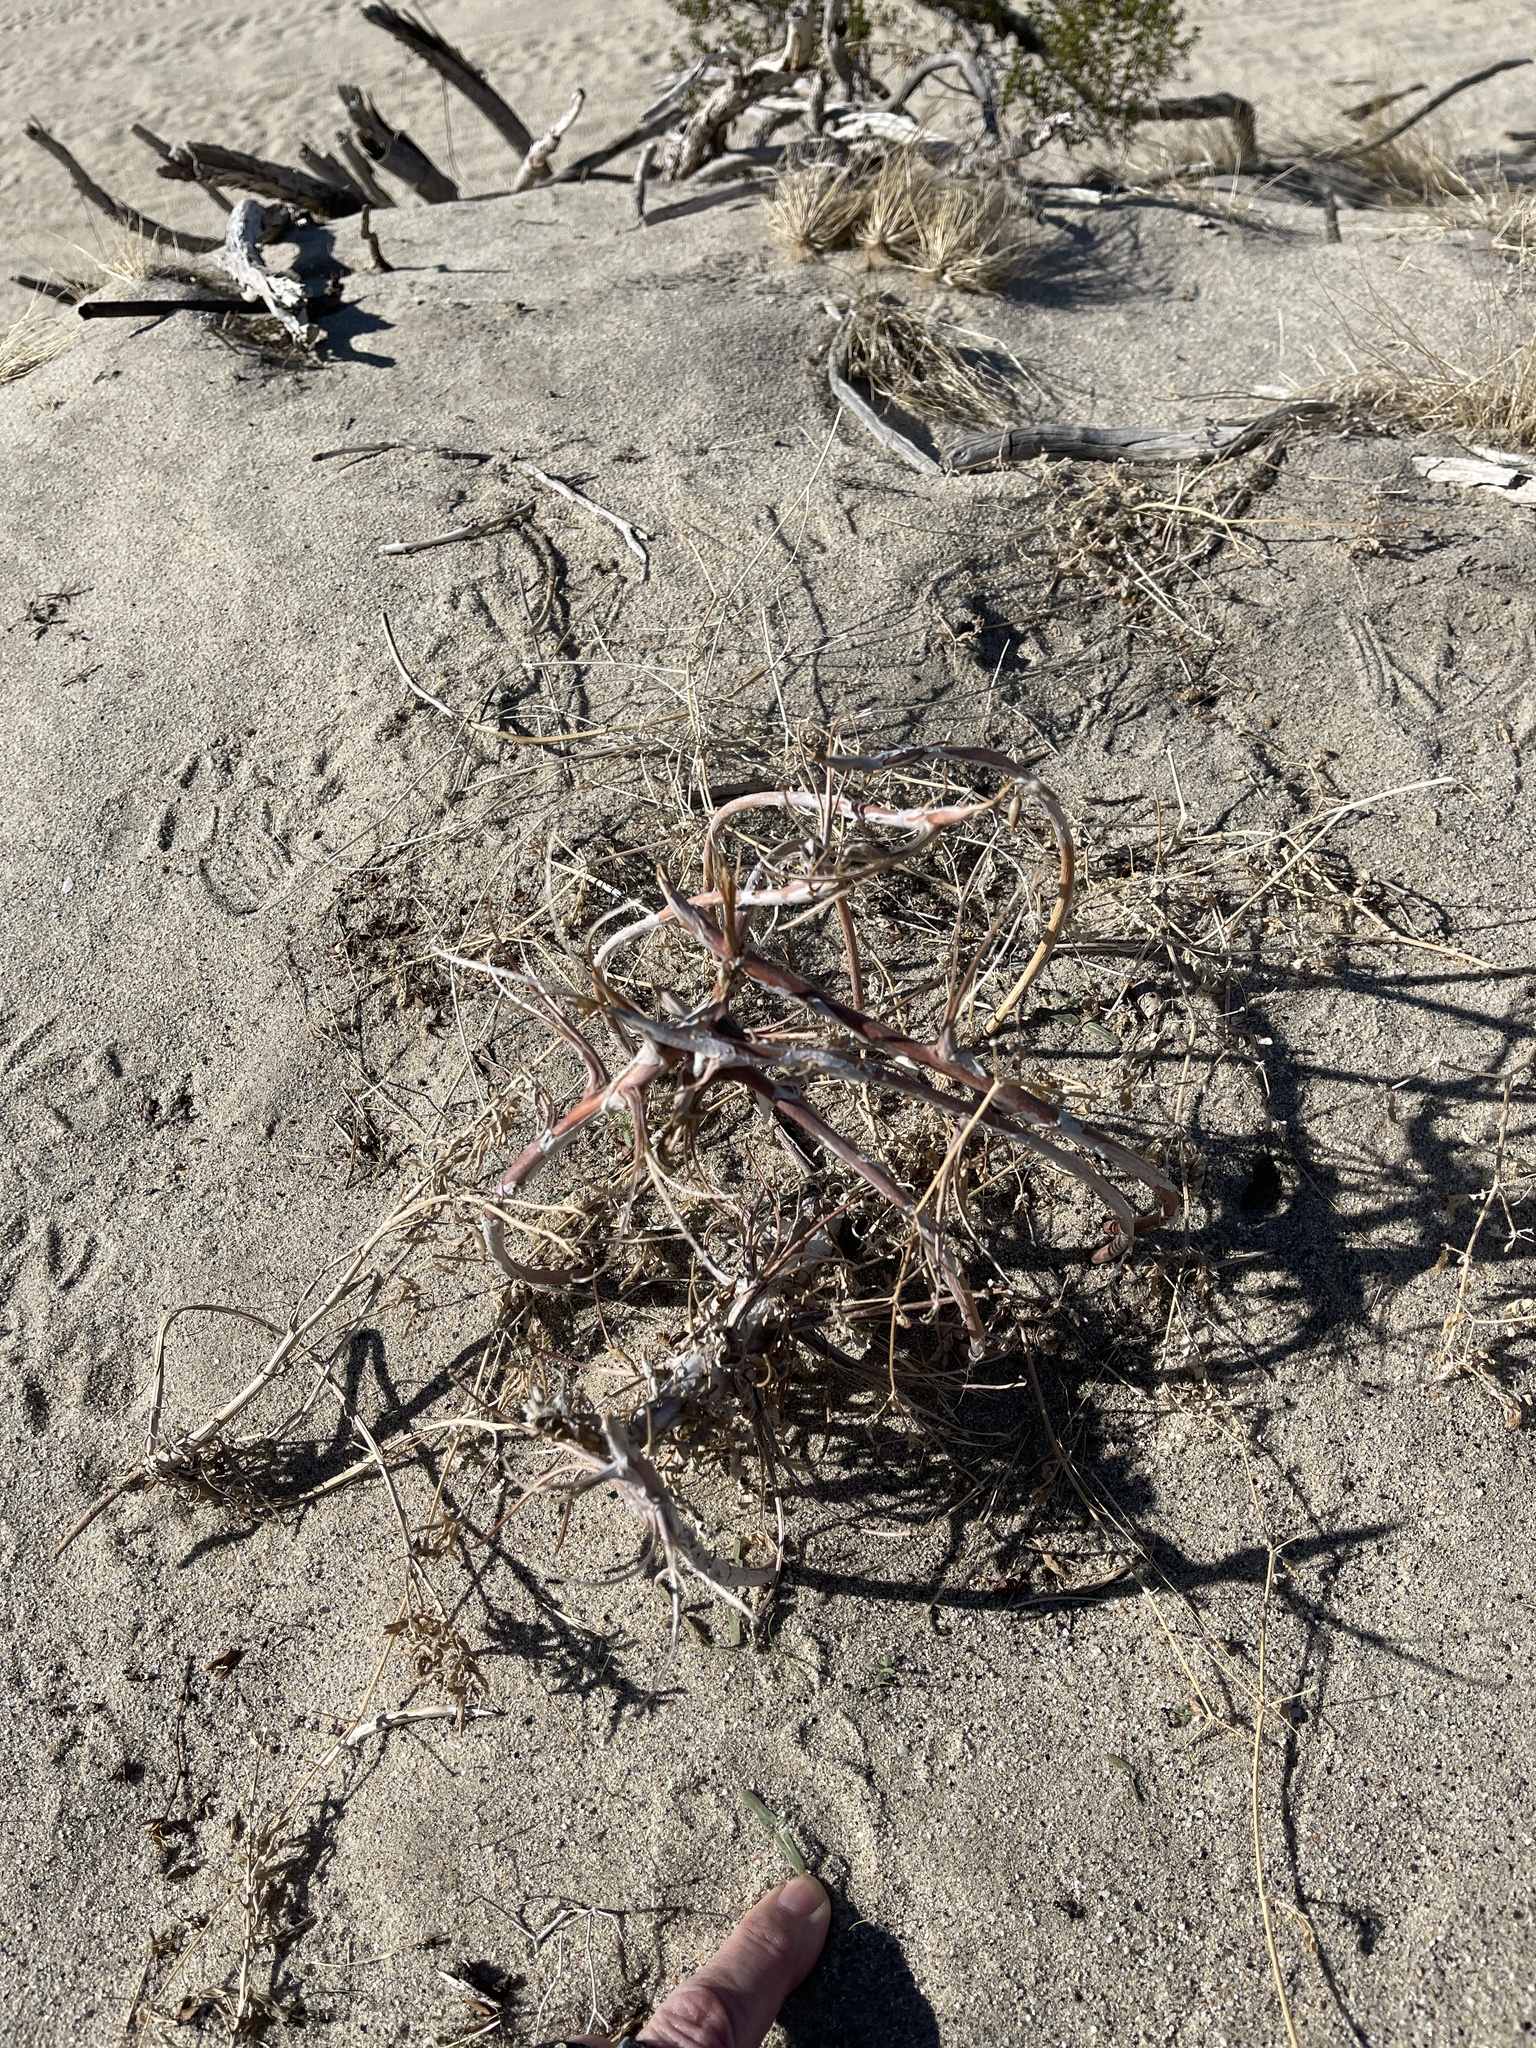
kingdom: Plantae
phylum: Tracheophyta
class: Magnoliopsida
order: Myrtales
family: Onagraceae
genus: Oenothera
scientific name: Oenothera deltoides
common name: Basket evening-primrose
